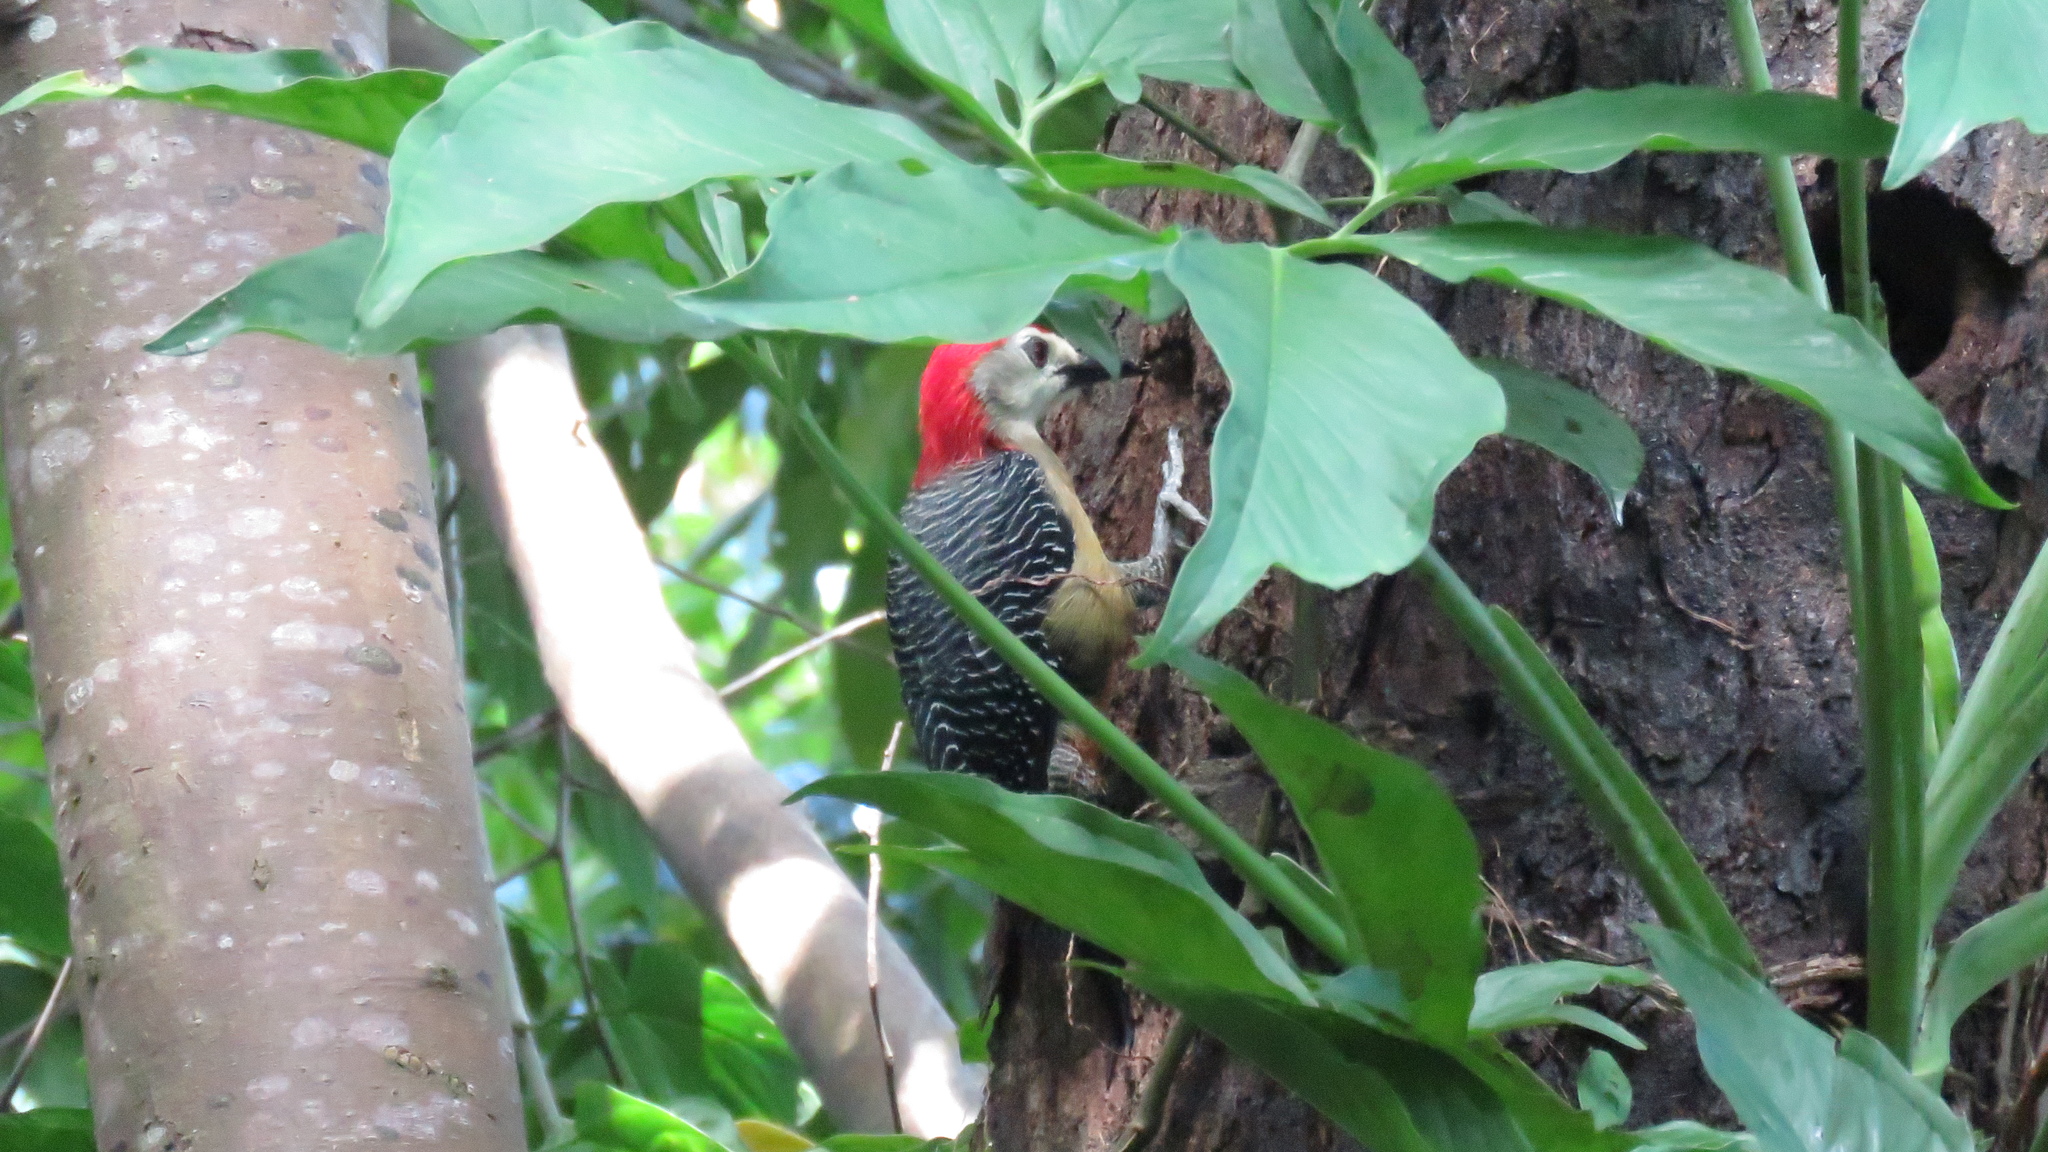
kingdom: Animalia
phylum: Chordata
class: Aves
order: Piciformes
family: Picidae
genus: Melanerpes
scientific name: Melanerpes radiolatus
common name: Jamaican woodpecker
